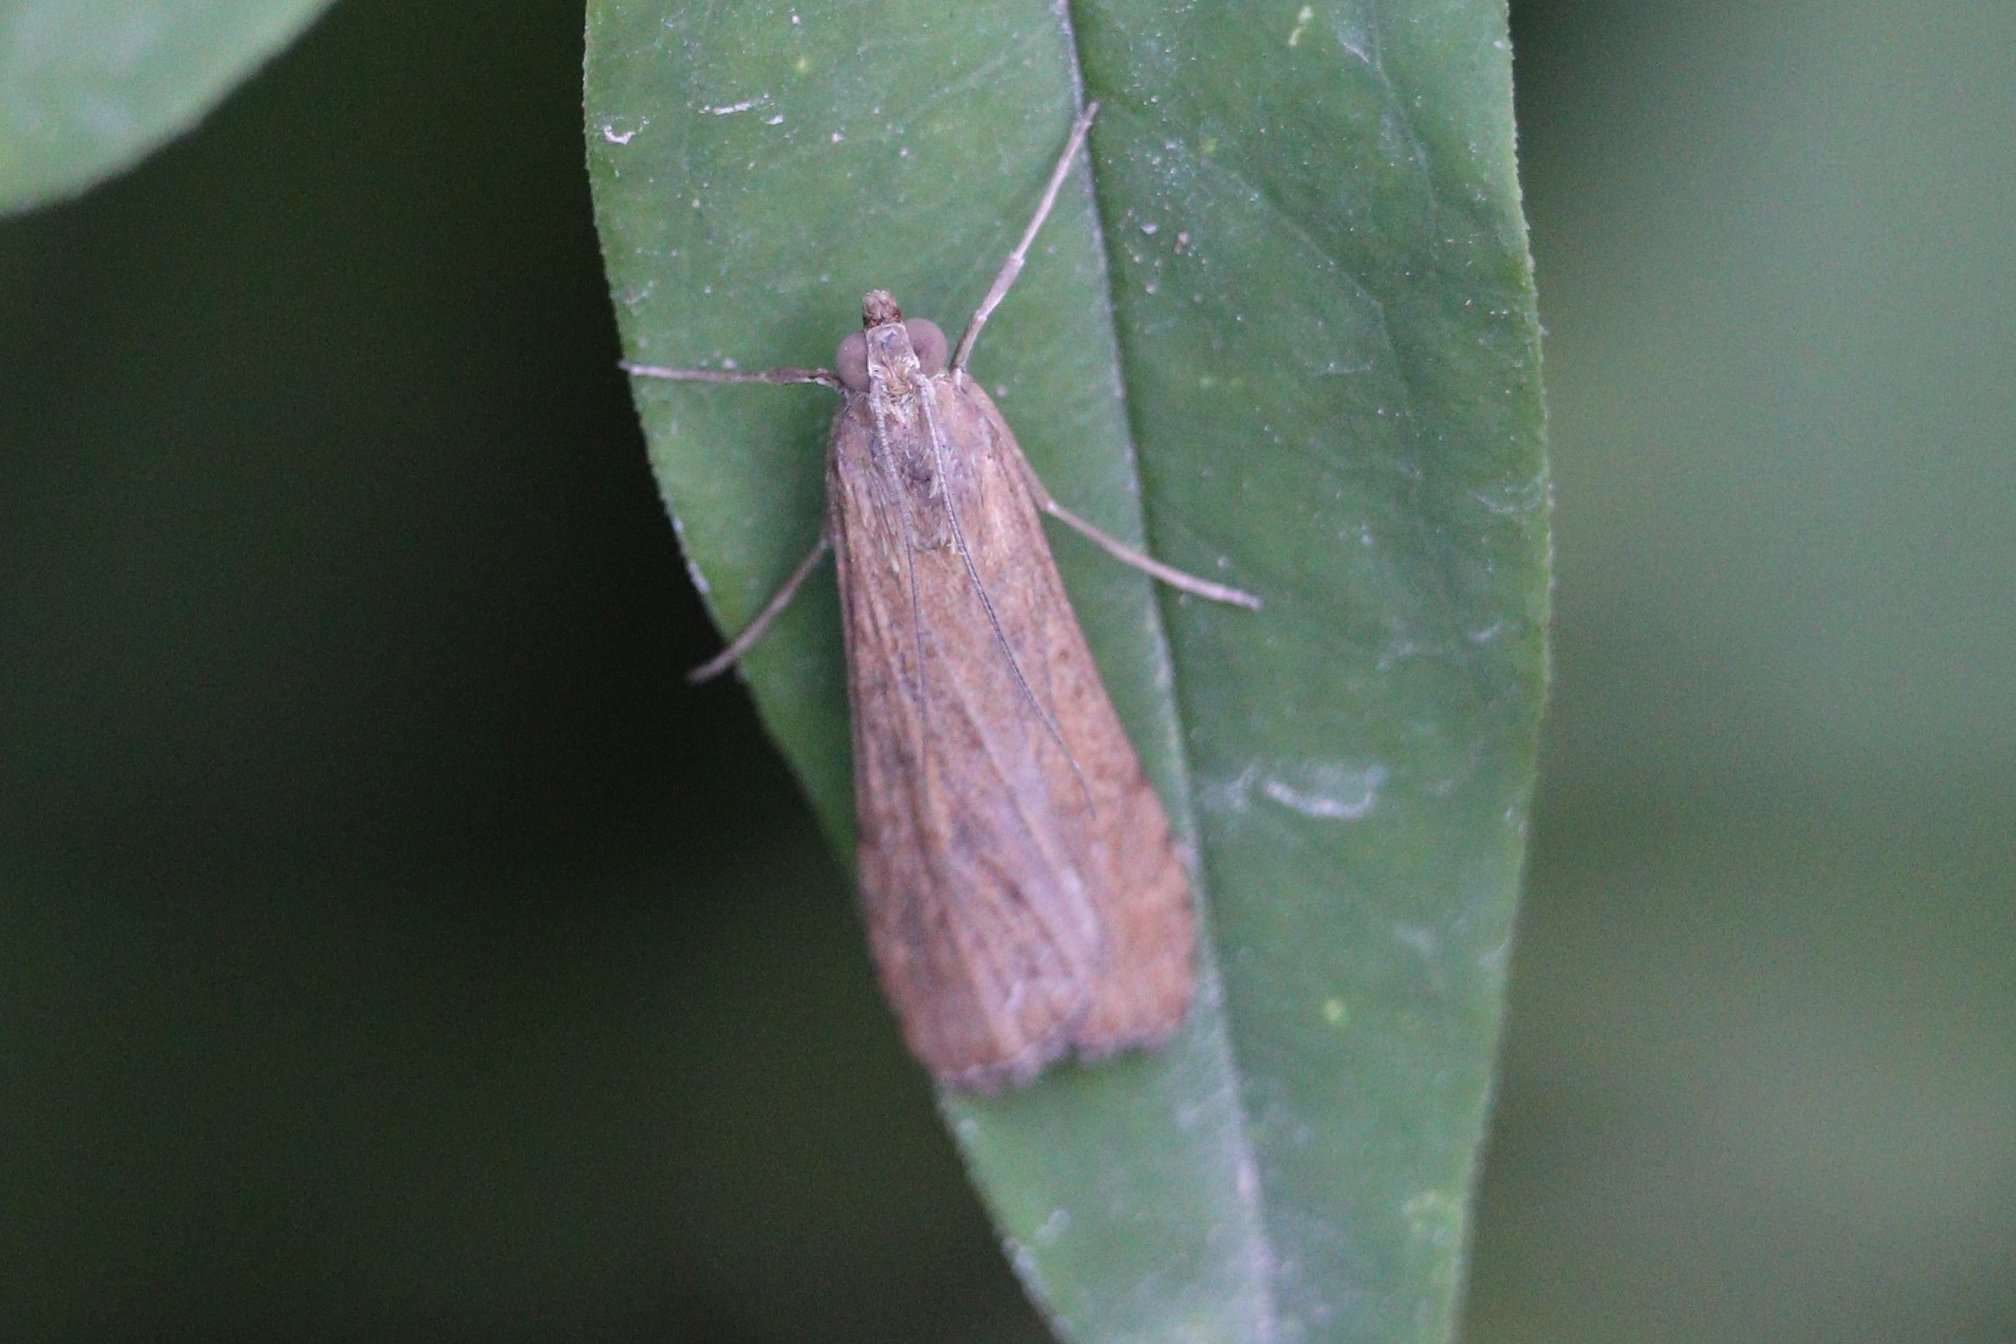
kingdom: Animalia
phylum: Arthropoda
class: Insecta
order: Lepidoptera
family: Crambidae
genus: Nomophila
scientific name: Nomophila noctuella
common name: Rush veneer
